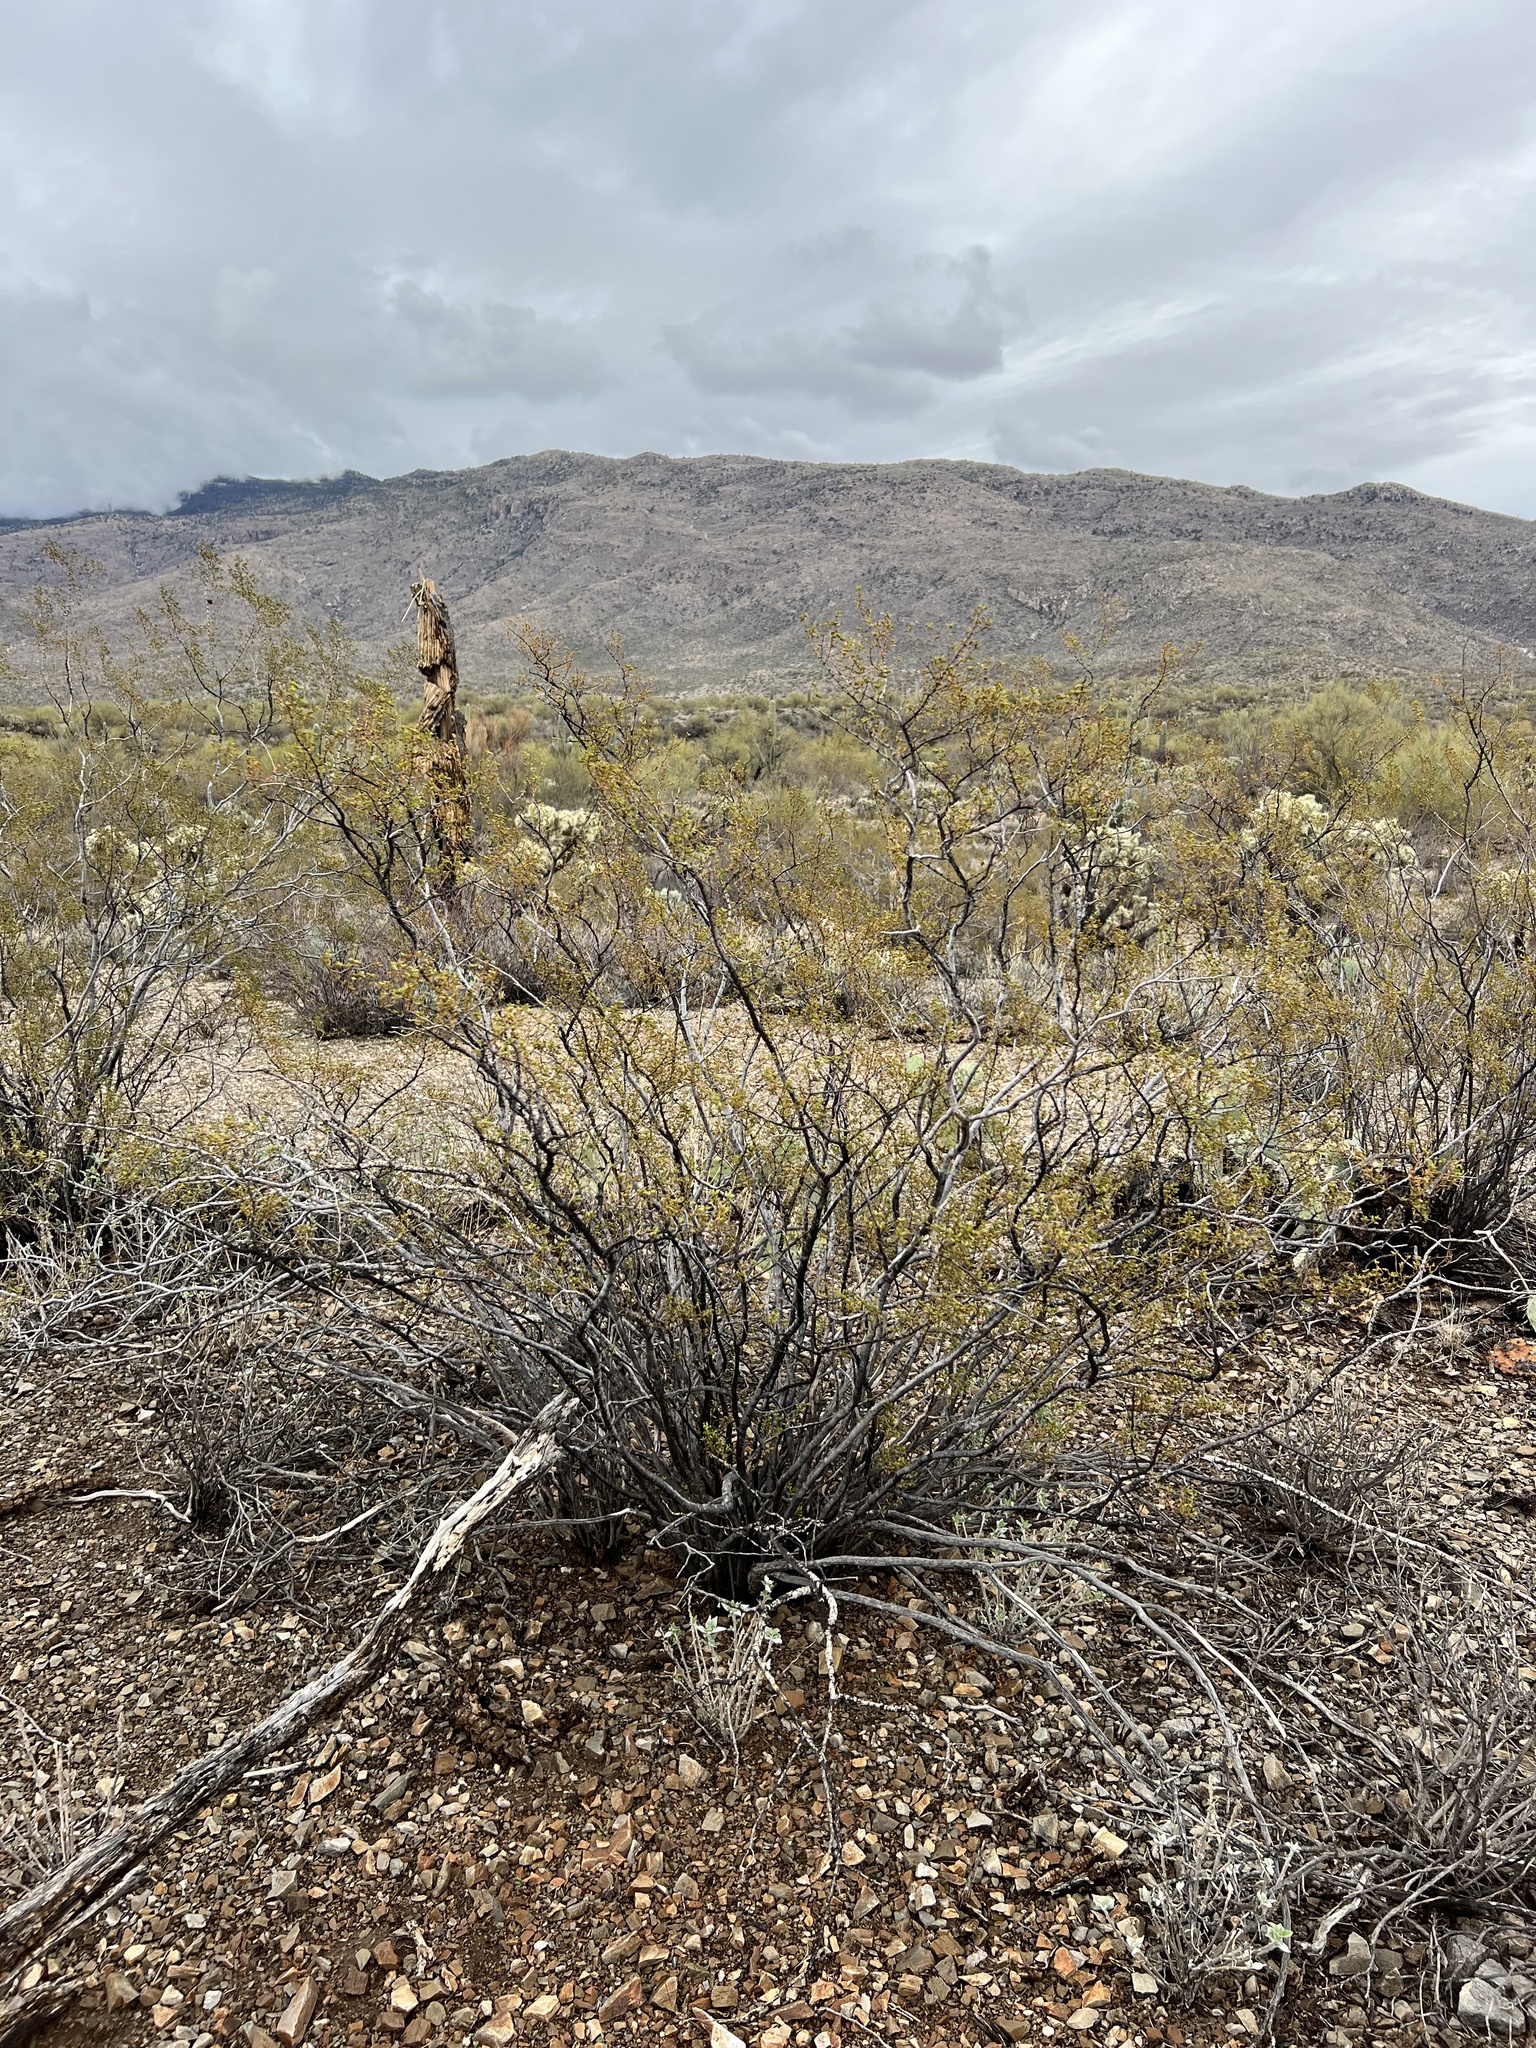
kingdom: Plantae
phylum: Tracheophyta
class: Magnoliopsida
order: Zygophyllales
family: Zygophyllaceae
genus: Larrea
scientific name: Larrea tridentata
